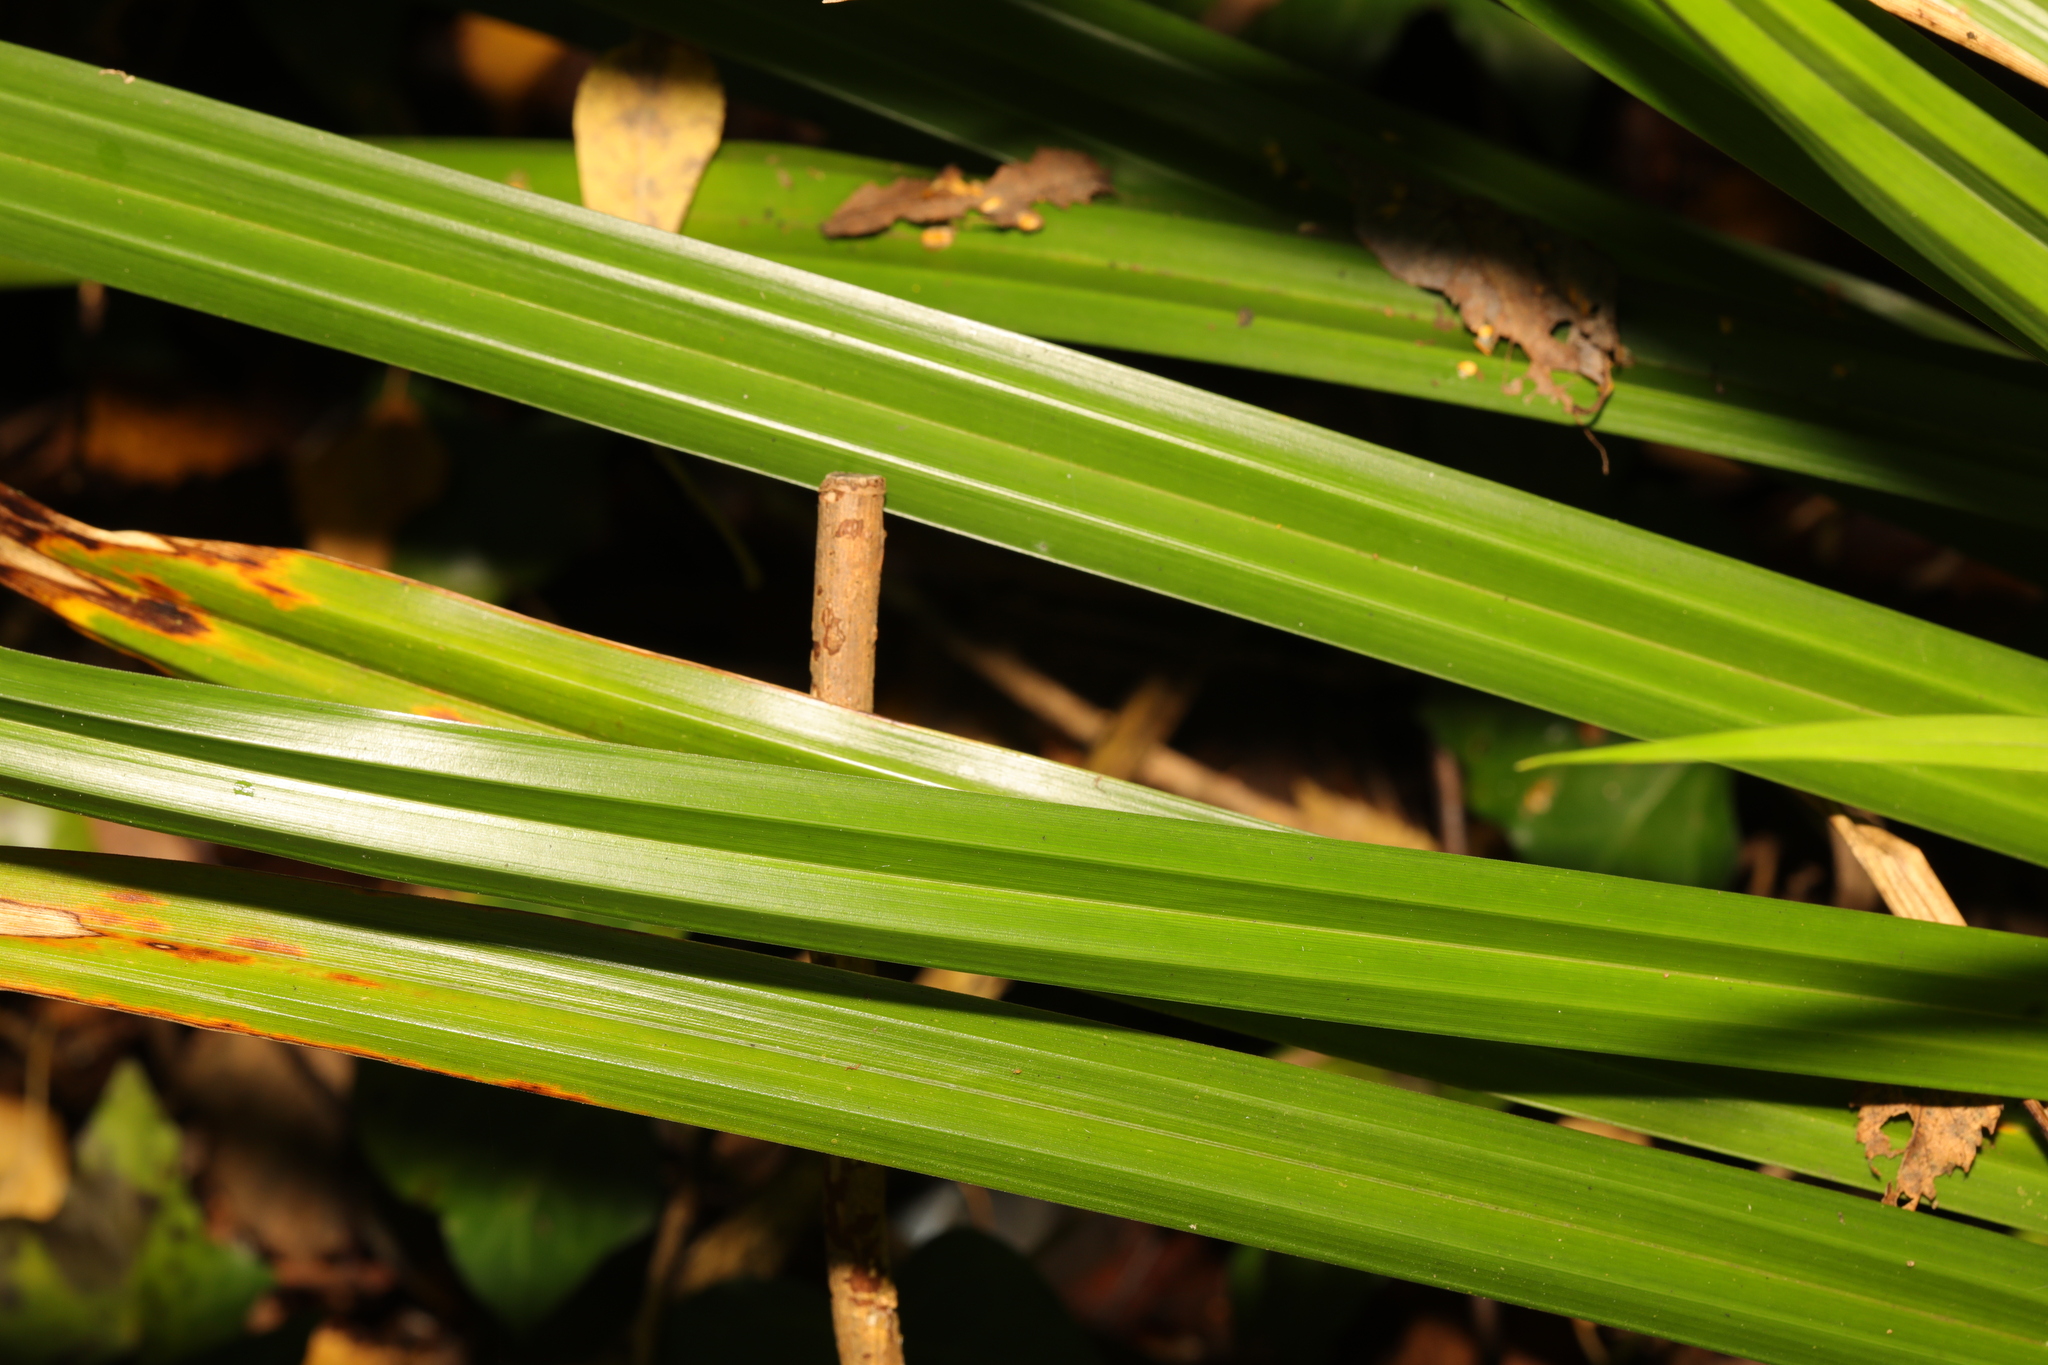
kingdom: Plantae
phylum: Tracheophyta
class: Liliopsida
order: Poales
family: Cyperaceae
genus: Carex
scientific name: Carex pendula
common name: Pendulous sedge
